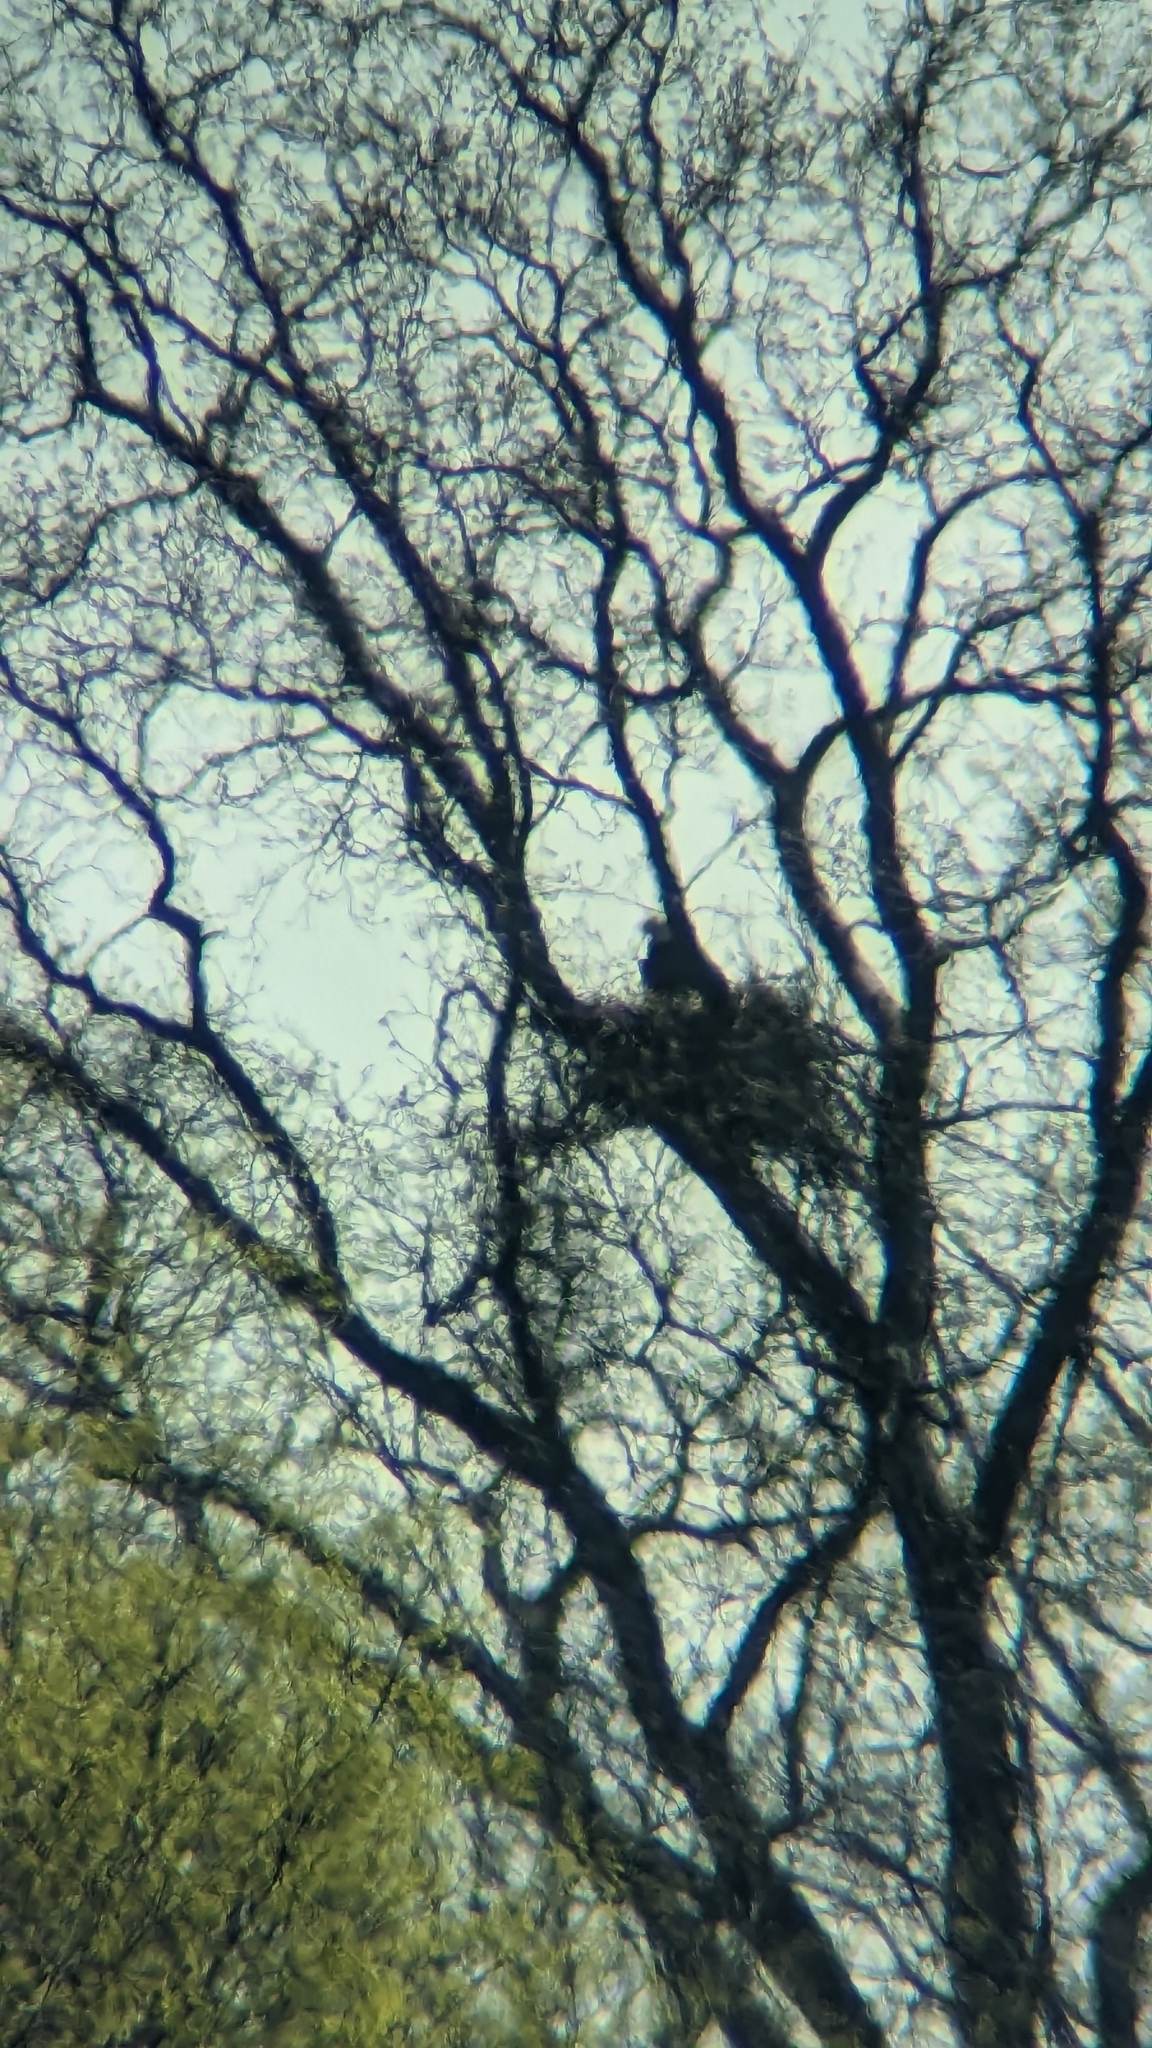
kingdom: Animalia
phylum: Chordata
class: Aves
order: Accipitriformes
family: Accipitridae
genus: Haliaeetus
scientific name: Haliaeetus leucocephalus
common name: Bald eagle
